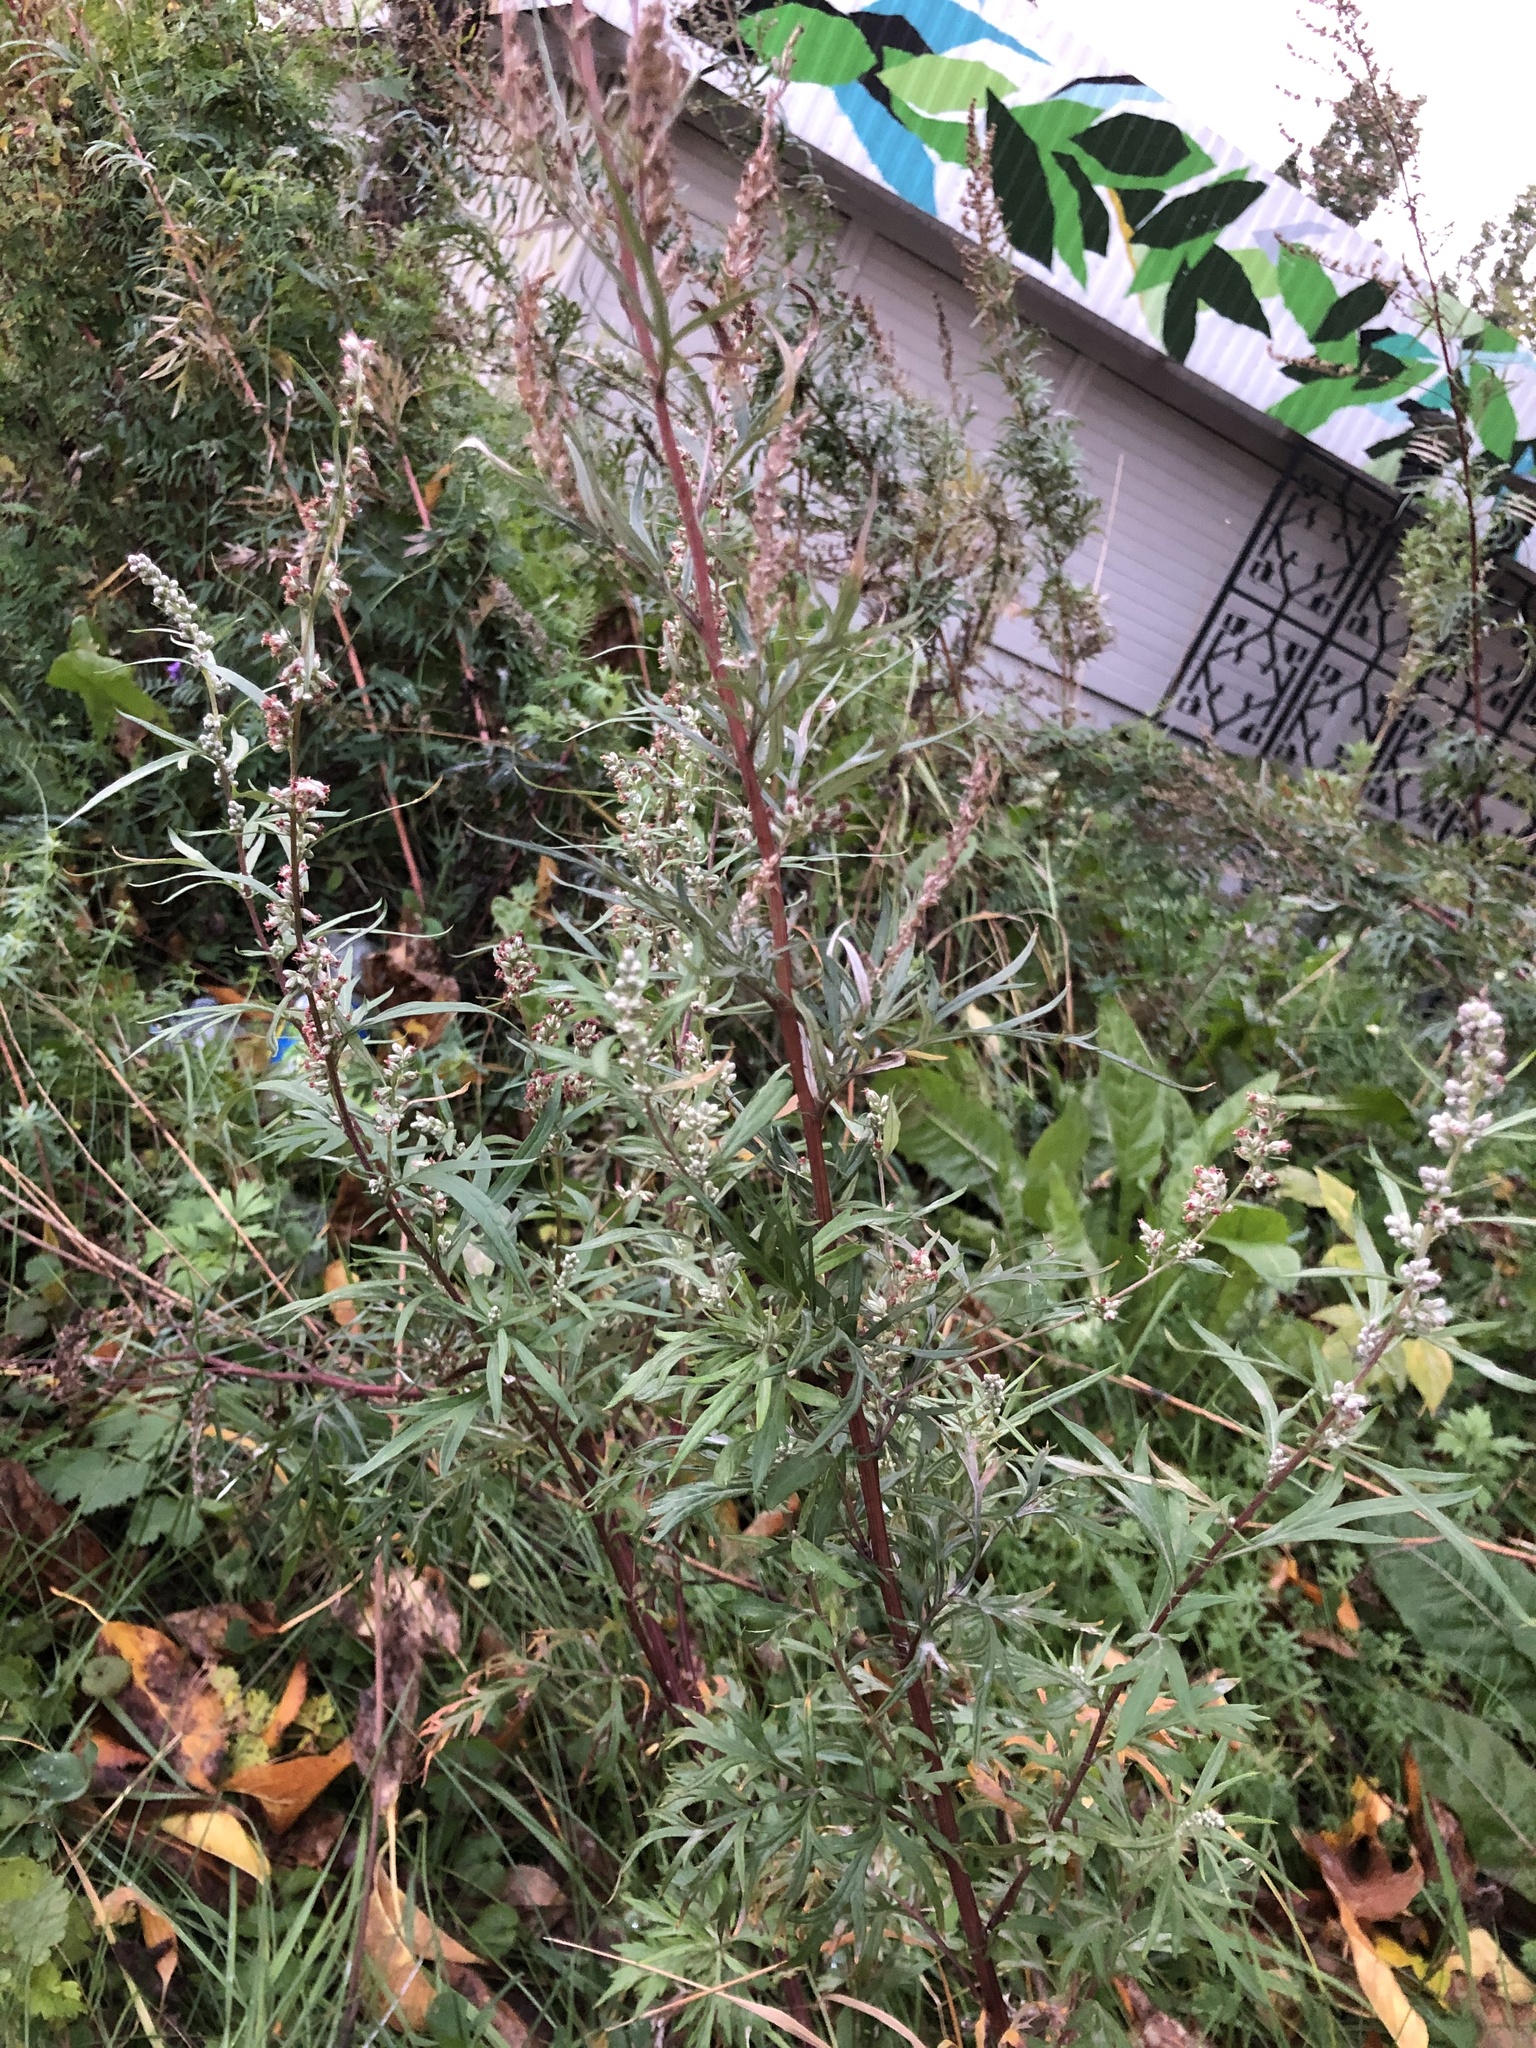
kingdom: Plantae
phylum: Tracheophyta
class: Magnoliopsida
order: Asterales
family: Asteraceae
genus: Artemisia
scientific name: Artemisia vulgaris
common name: Mugwort
